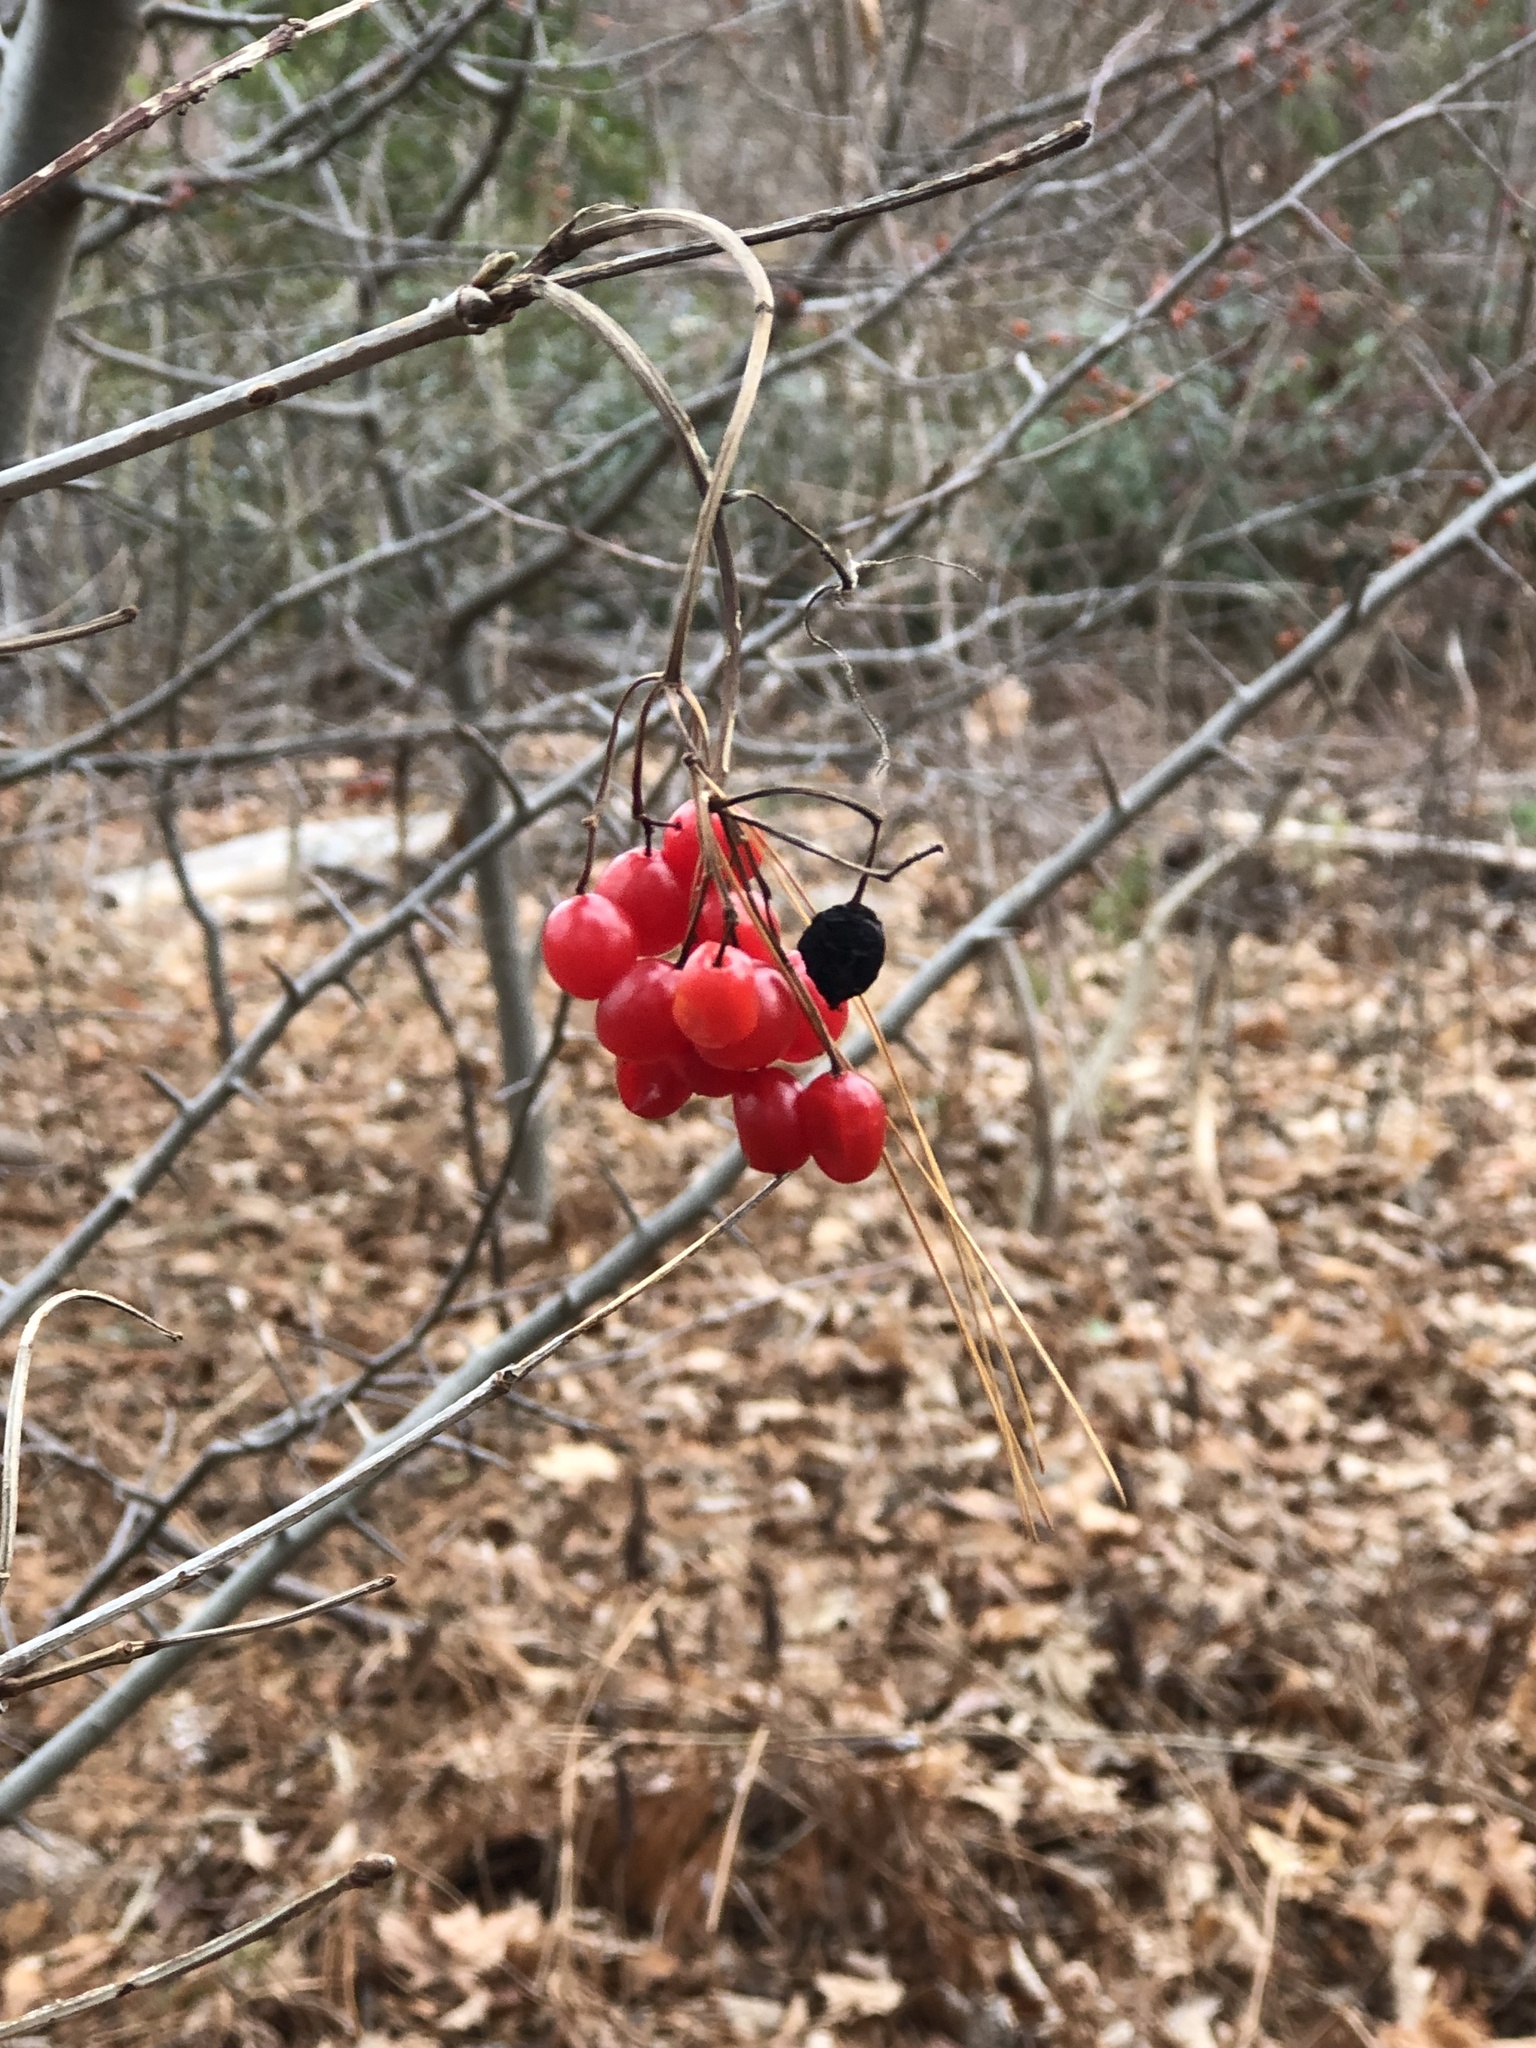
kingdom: Plantae
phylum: Tracheophyta
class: Magnoliopsida
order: Dipsacales
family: Viburnaceae
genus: Viburnum
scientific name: Viburnum opulus
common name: Guelder-rose
